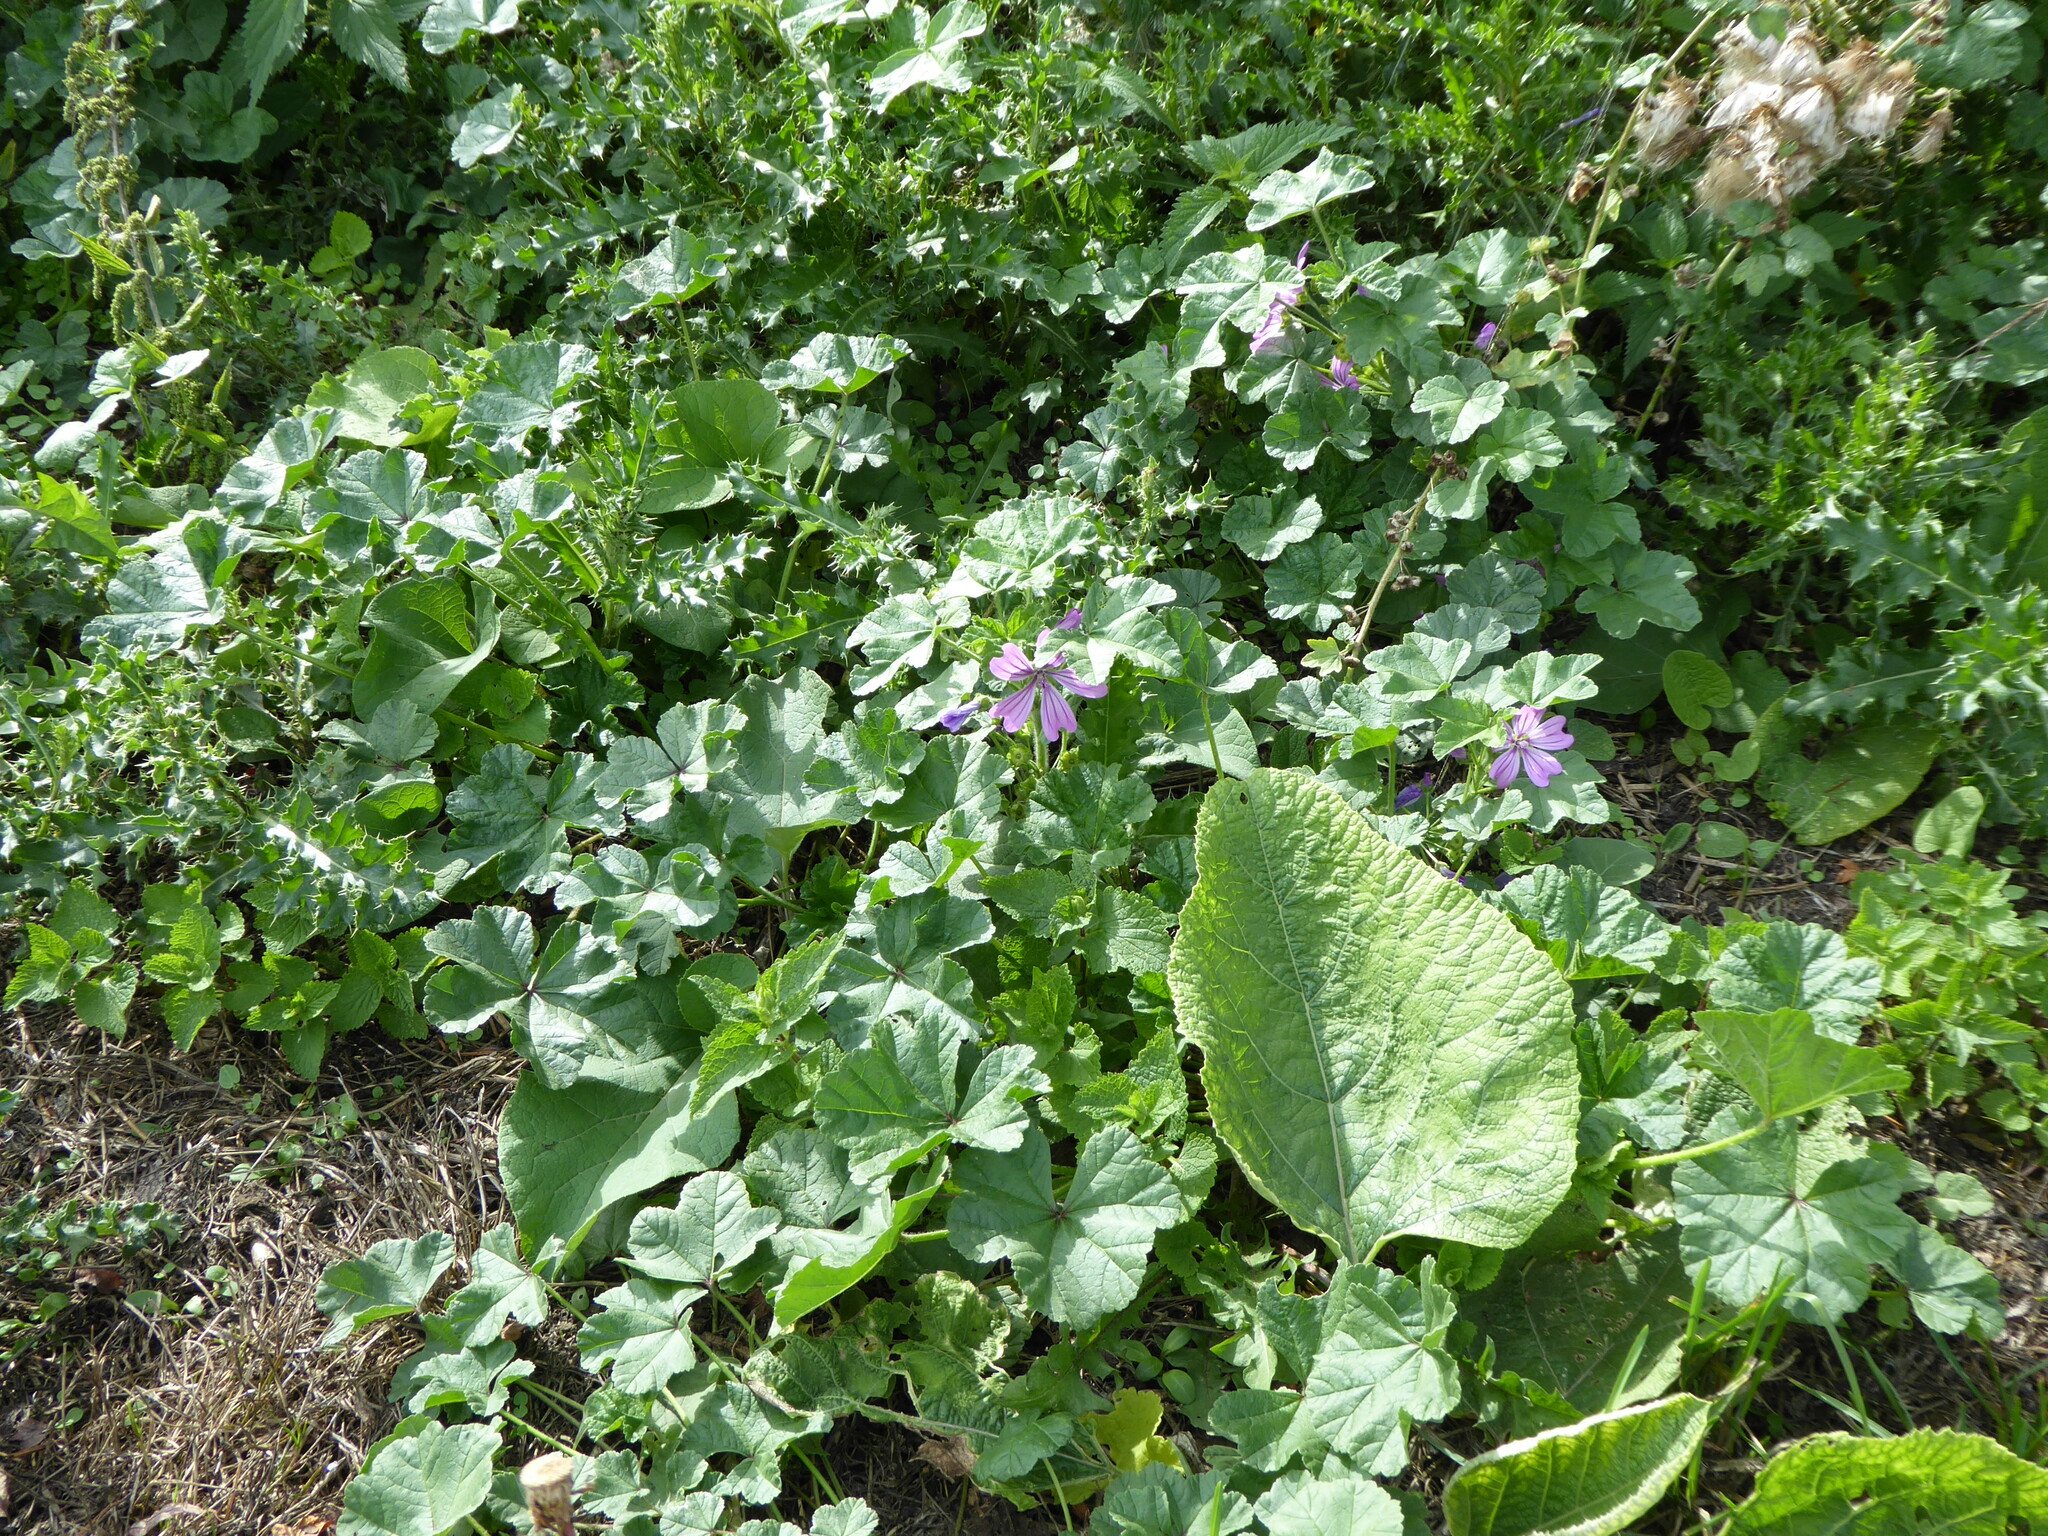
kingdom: Plantae
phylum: Tracheophyta
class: Magnoliopsida
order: Malvales
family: Malvaceae
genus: Malva
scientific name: Malva sylvestris
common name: Common mallow
